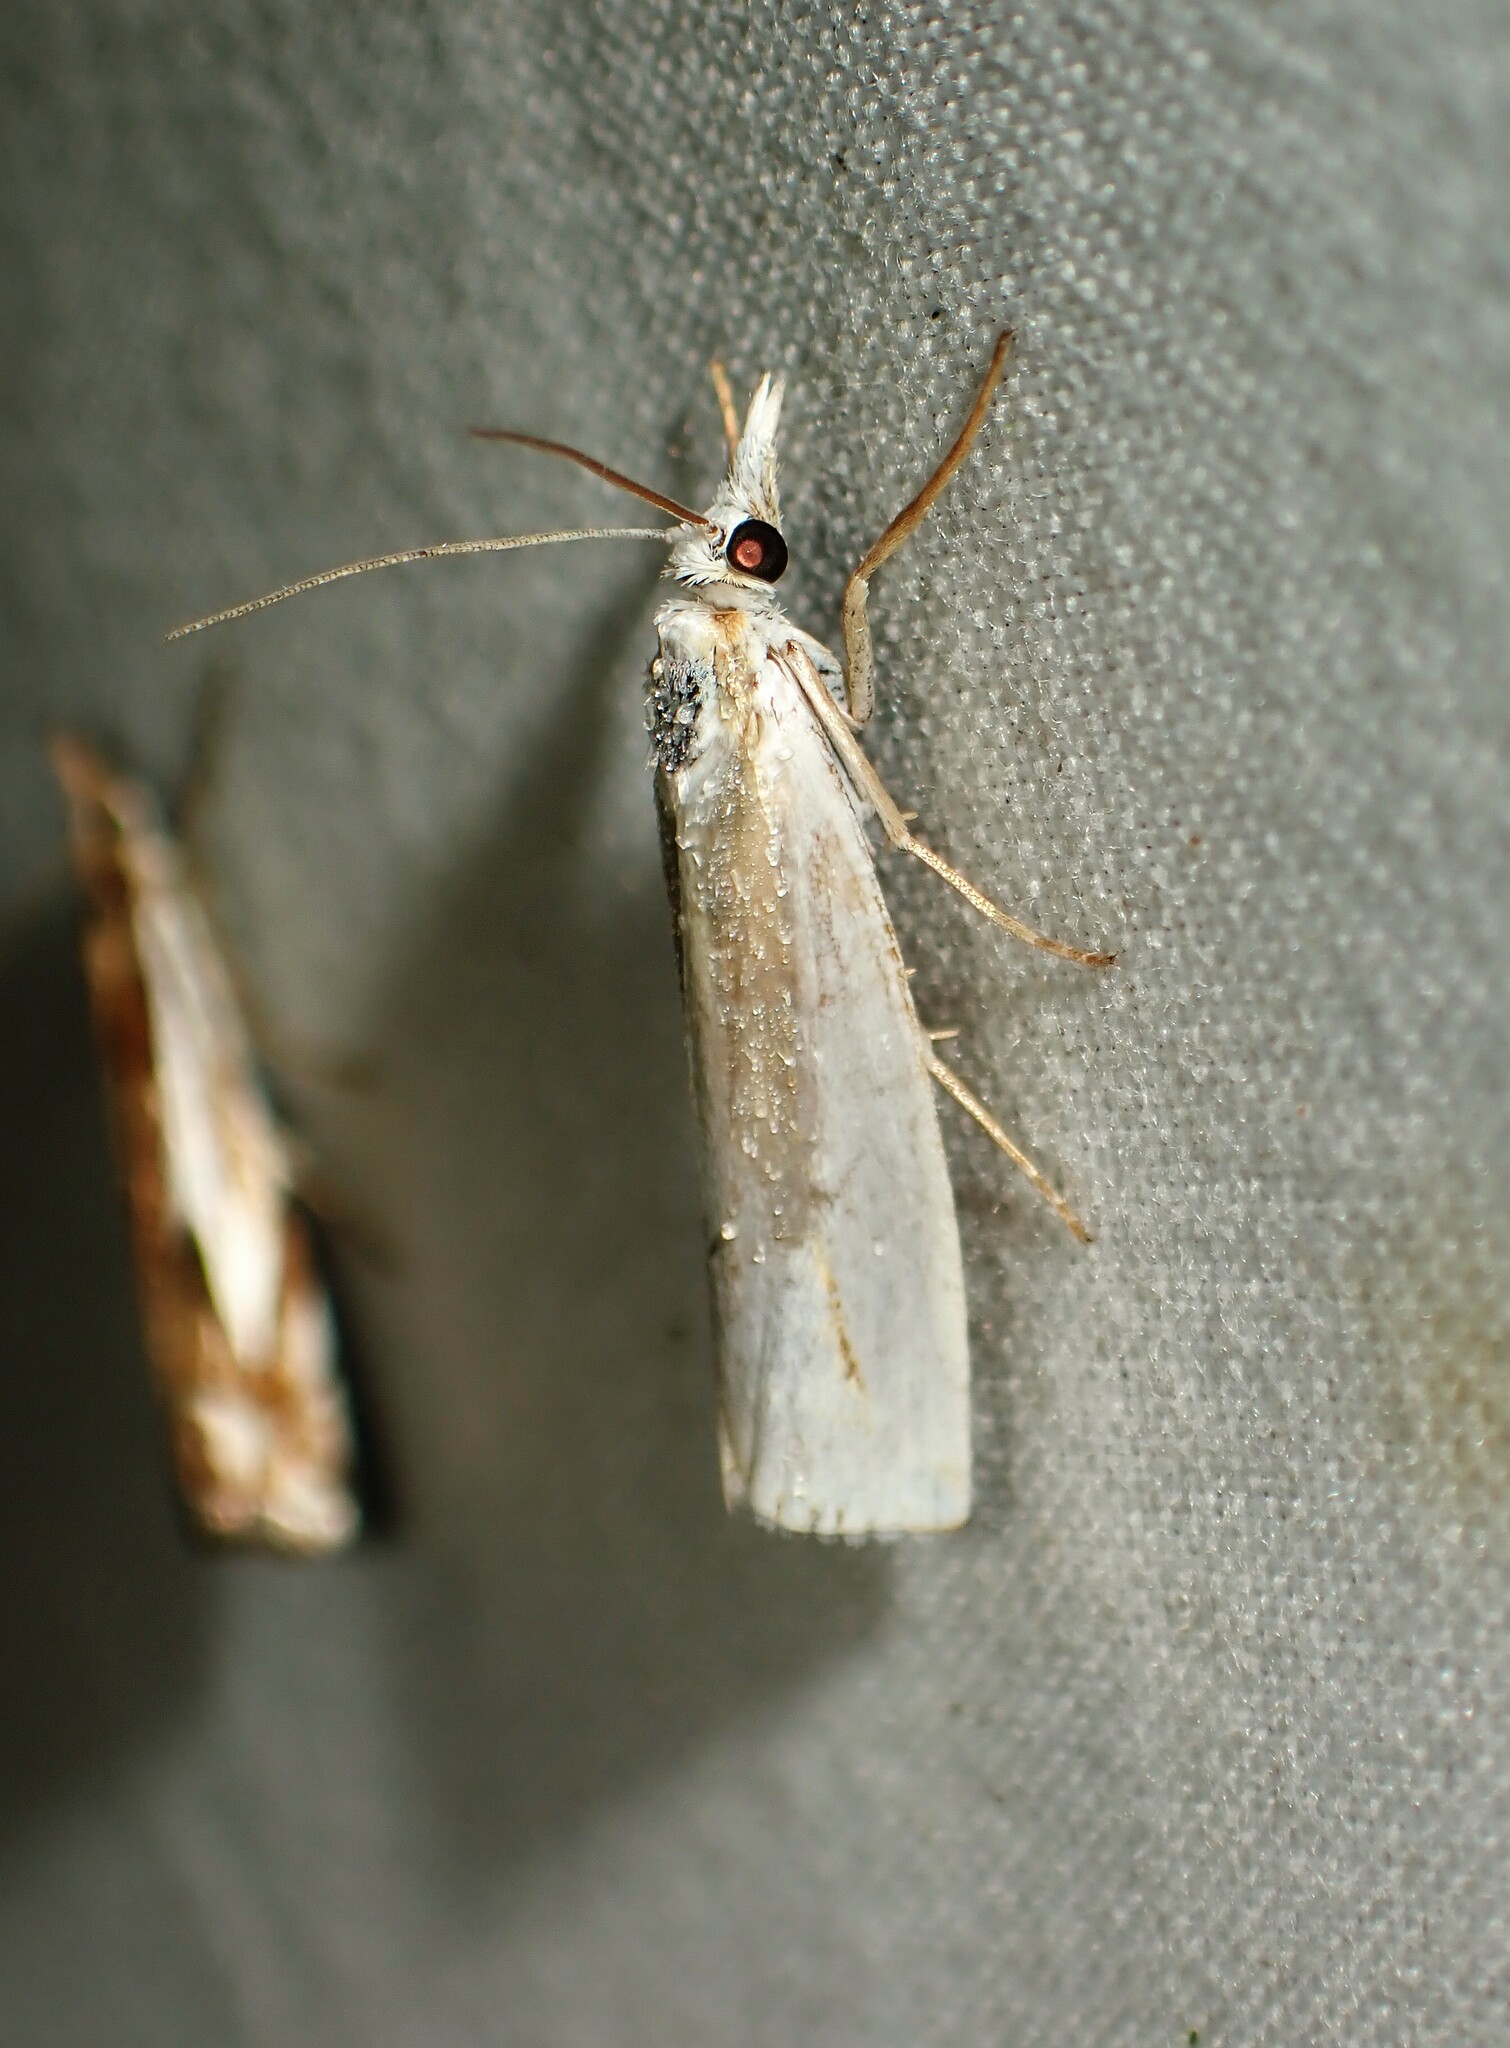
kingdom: Animalia
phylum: Arthropoda
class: Insecta
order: Lepidoptera
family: Crambidae
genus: Crambus
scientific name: Crambus girardellus
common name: Girard's grass-veneer
